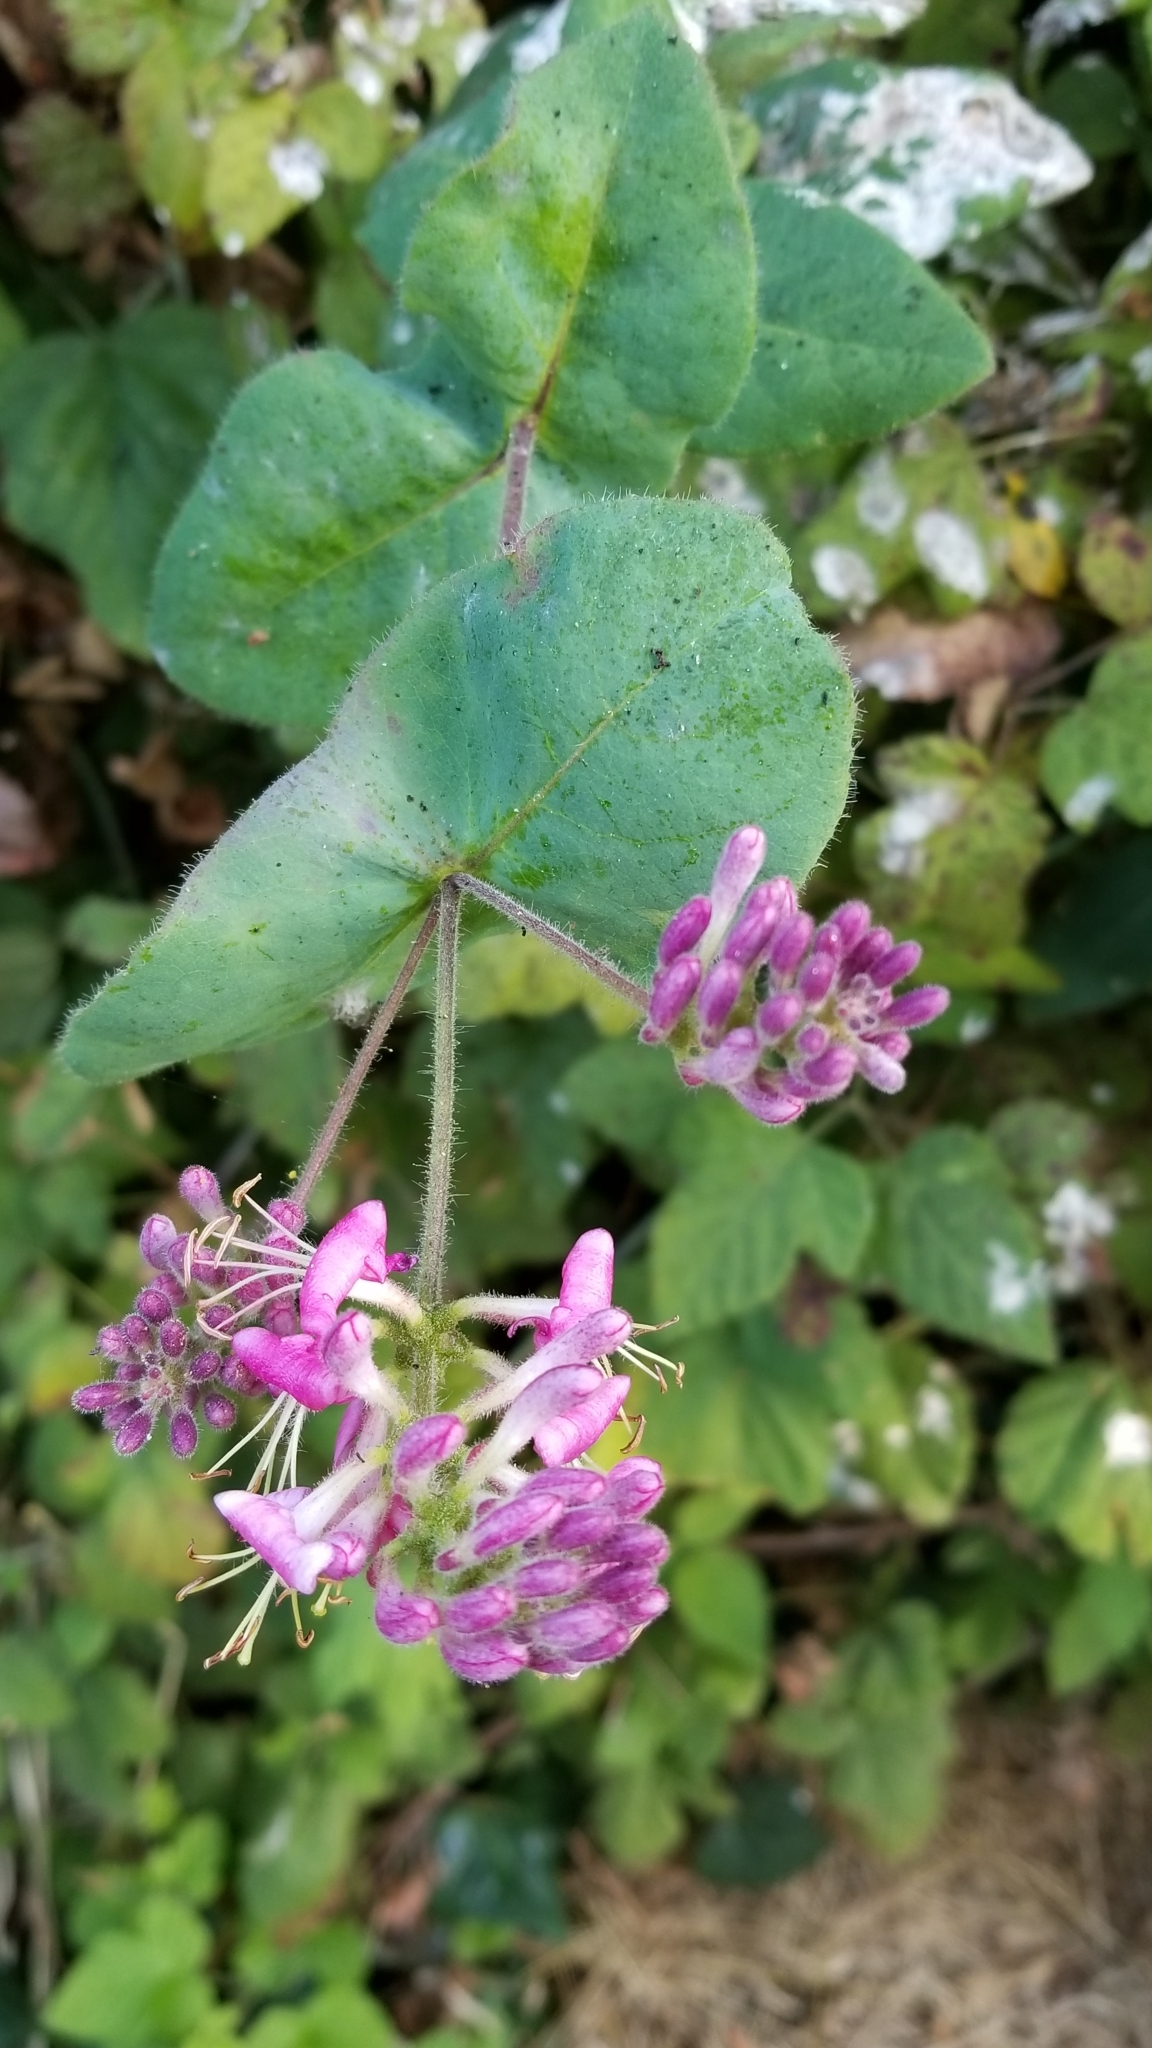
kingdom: Plantae
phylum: Tracheophyta
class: Magnoliopsida
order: Dipsacales
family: Caprifoliaceae
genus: Lonicera
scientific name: Lonicera hispidula
